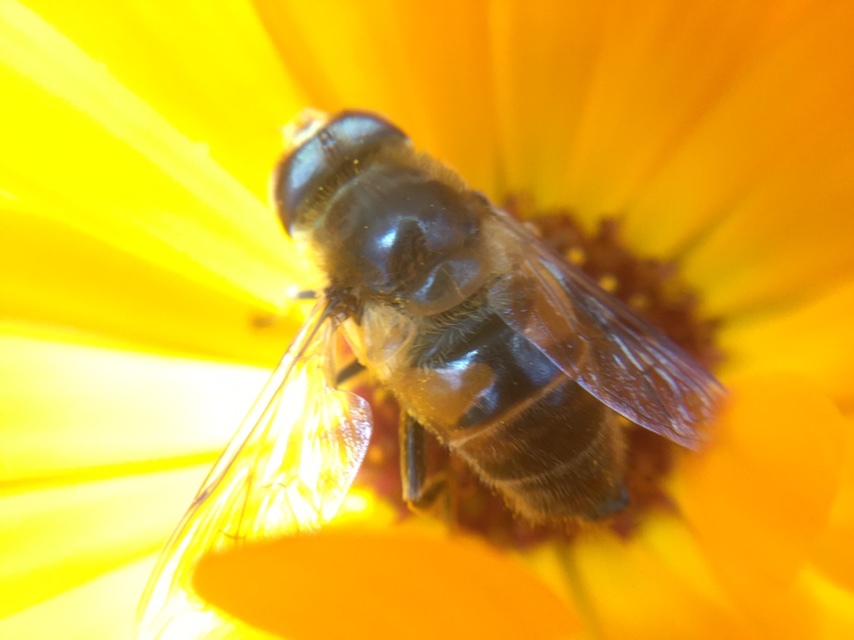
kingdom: Animalia
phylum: Arthropoda
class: Insecta
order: Diptera
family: Syrphidae
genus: Eristalis
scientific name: Eristalis tenax
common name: Drone fly
